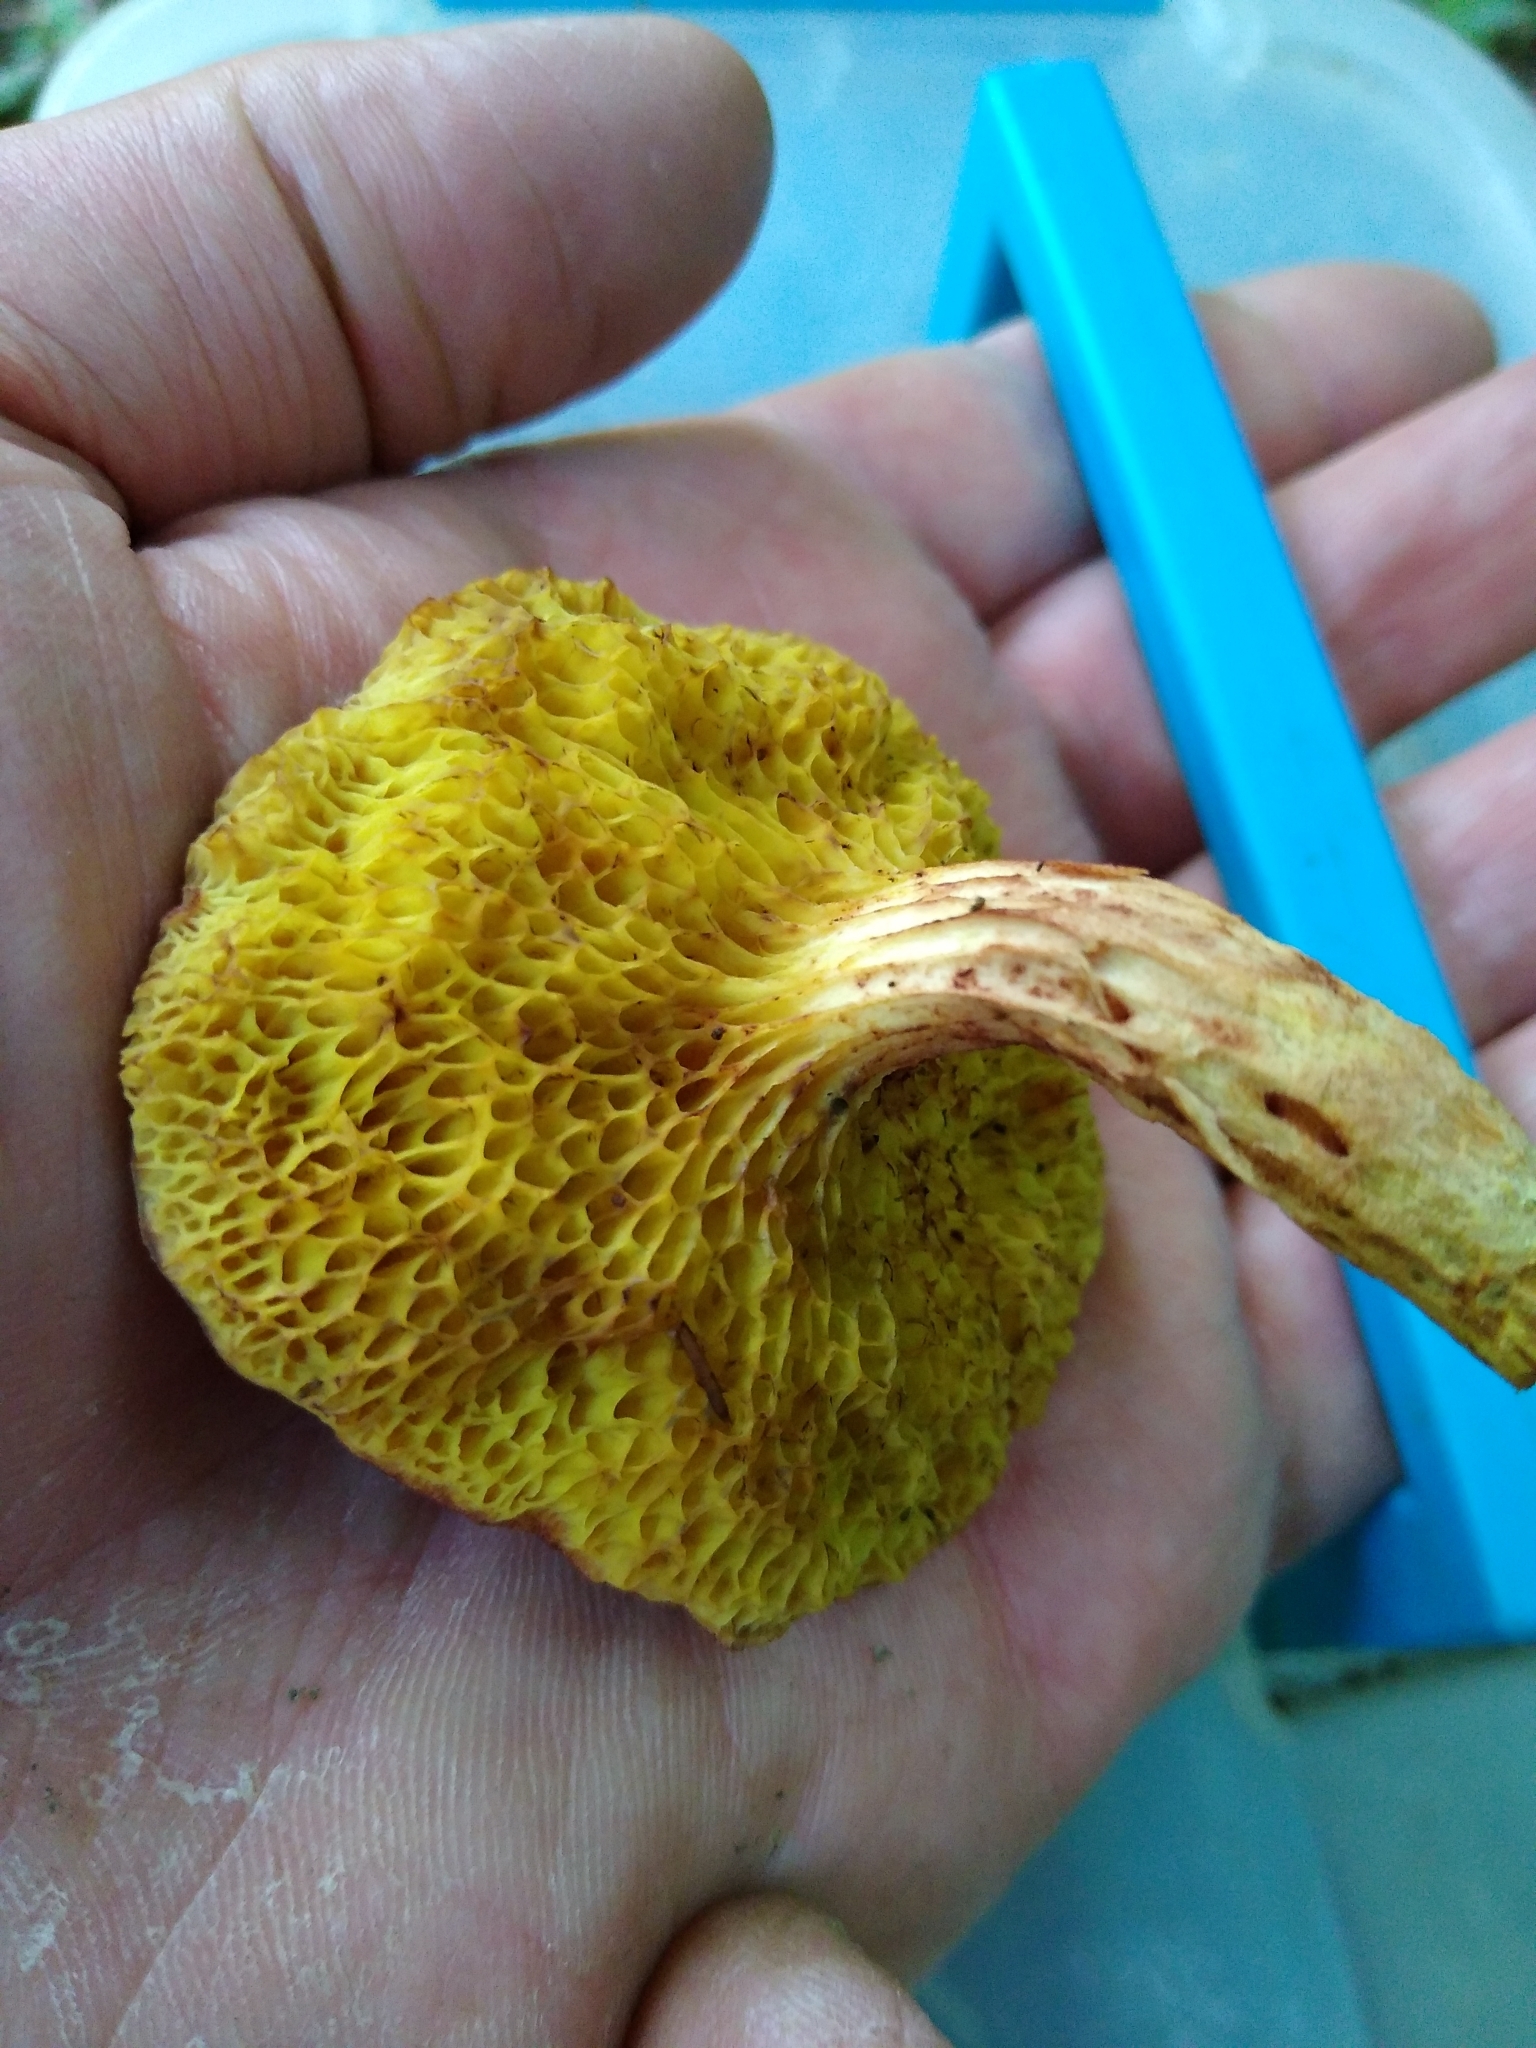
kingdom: Fungi
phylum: Basidiomycota
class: Agaricomycetes
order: Boletales
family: Boletaceae
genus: Xerocomus
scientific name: Xerocomus tenax
